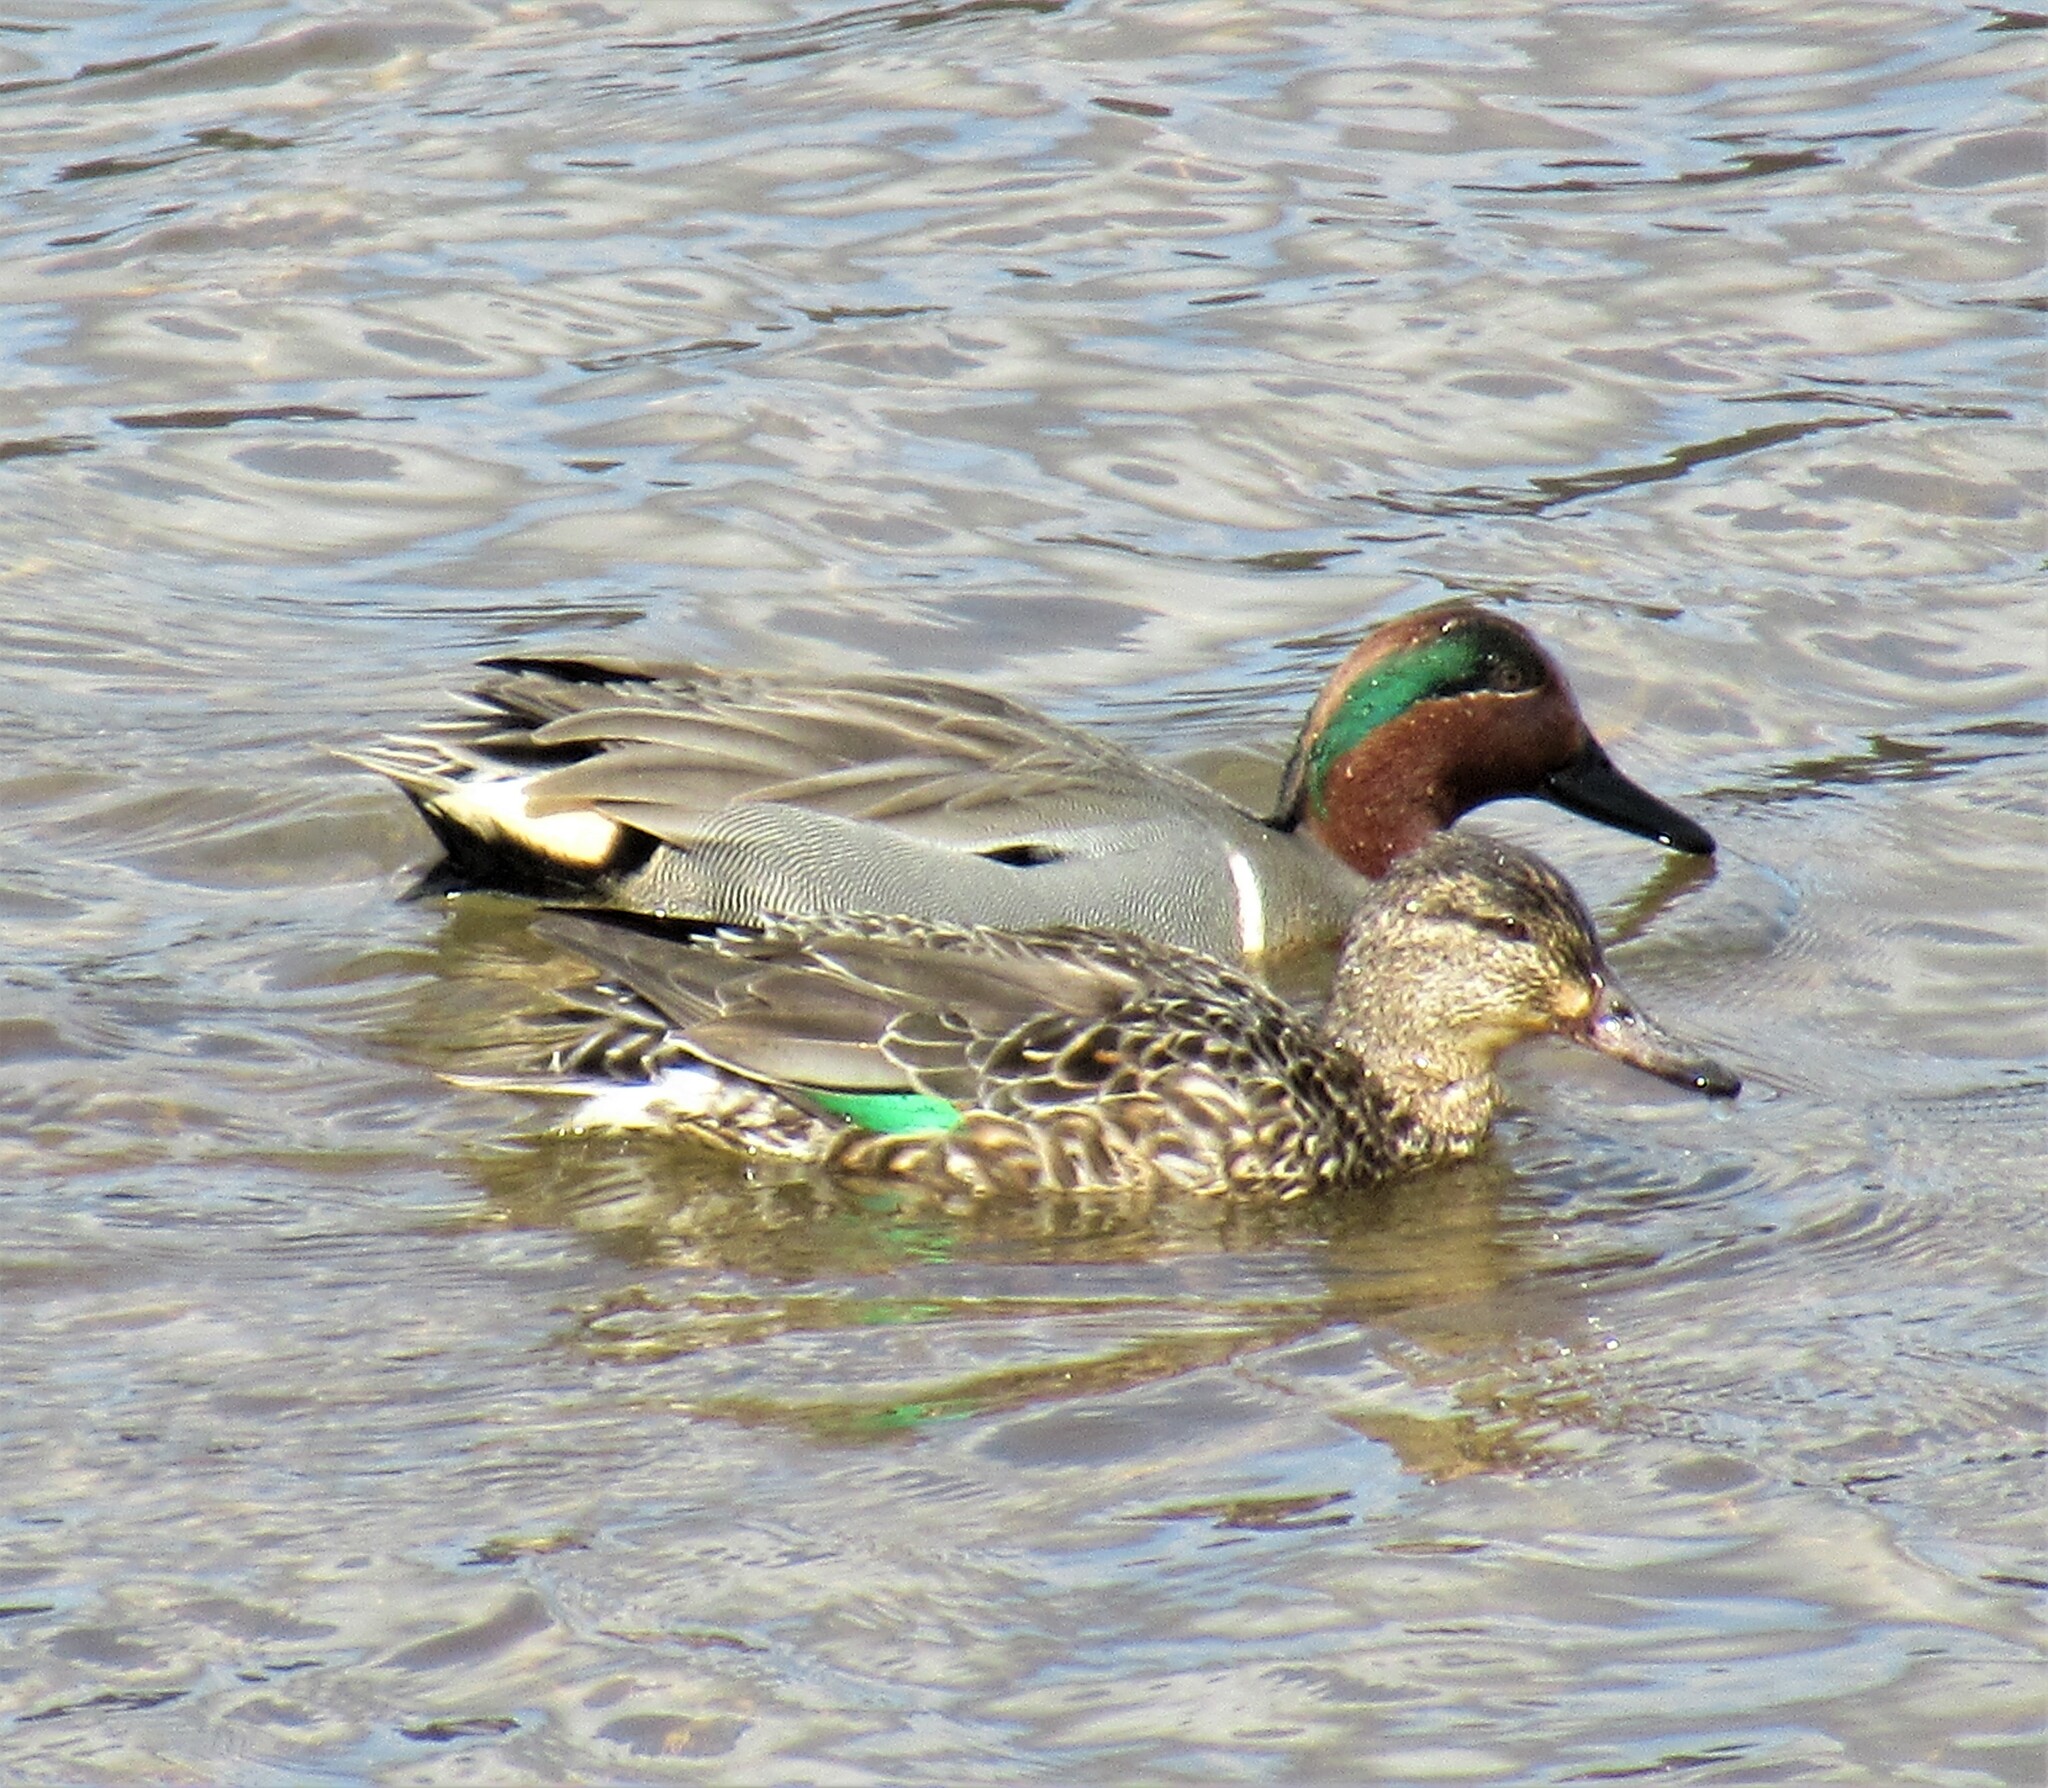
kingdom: Animalia
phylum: Chordata
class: Aves
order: Anseriformes
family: Anatidae
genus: Anas
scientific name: Anas crecca
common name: Eurasian teal
